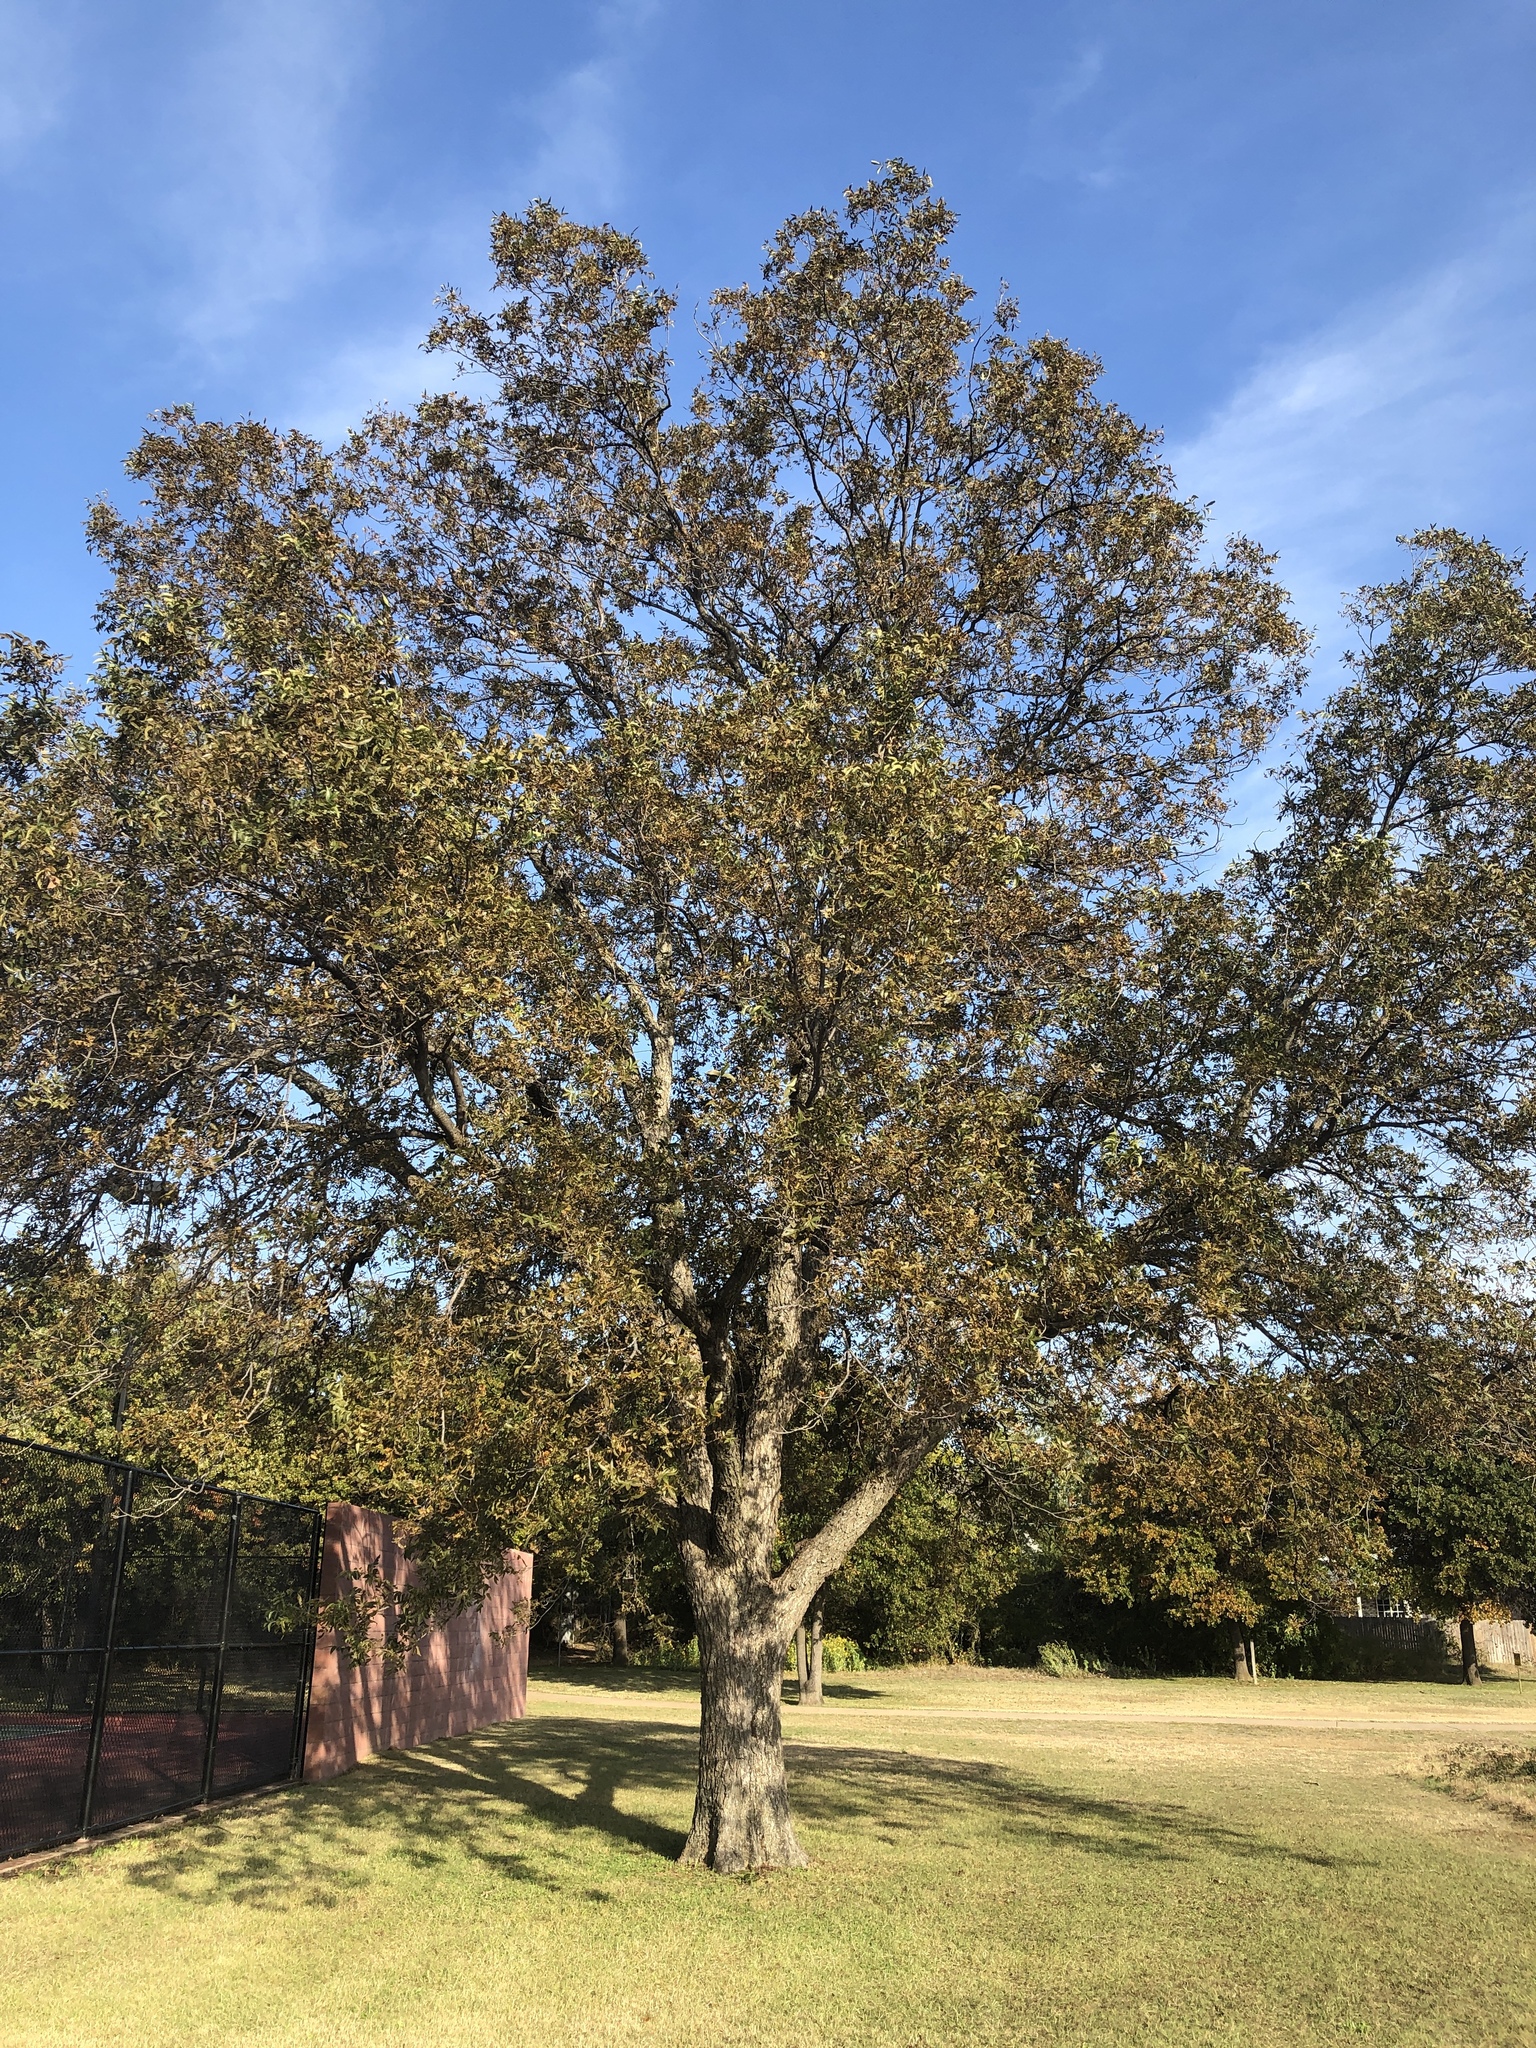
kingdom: Plantae
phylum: Tracheophyta
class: Magnoliopsida
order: Fagales
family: Juglandaceae
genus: Carya
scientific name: Carya illinoinensis
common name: Pecan
